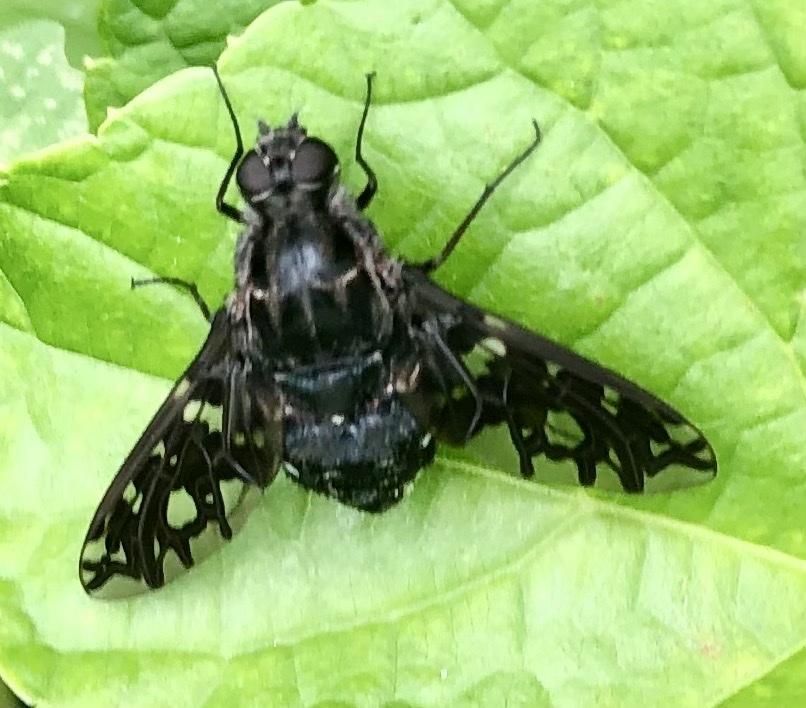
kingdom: Animalia
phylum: Arthropoda
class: Insecta
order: Diptera
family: Bombyliidae
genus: Xenox
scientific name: Xenox tigrinus
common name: Tiger bee fly
